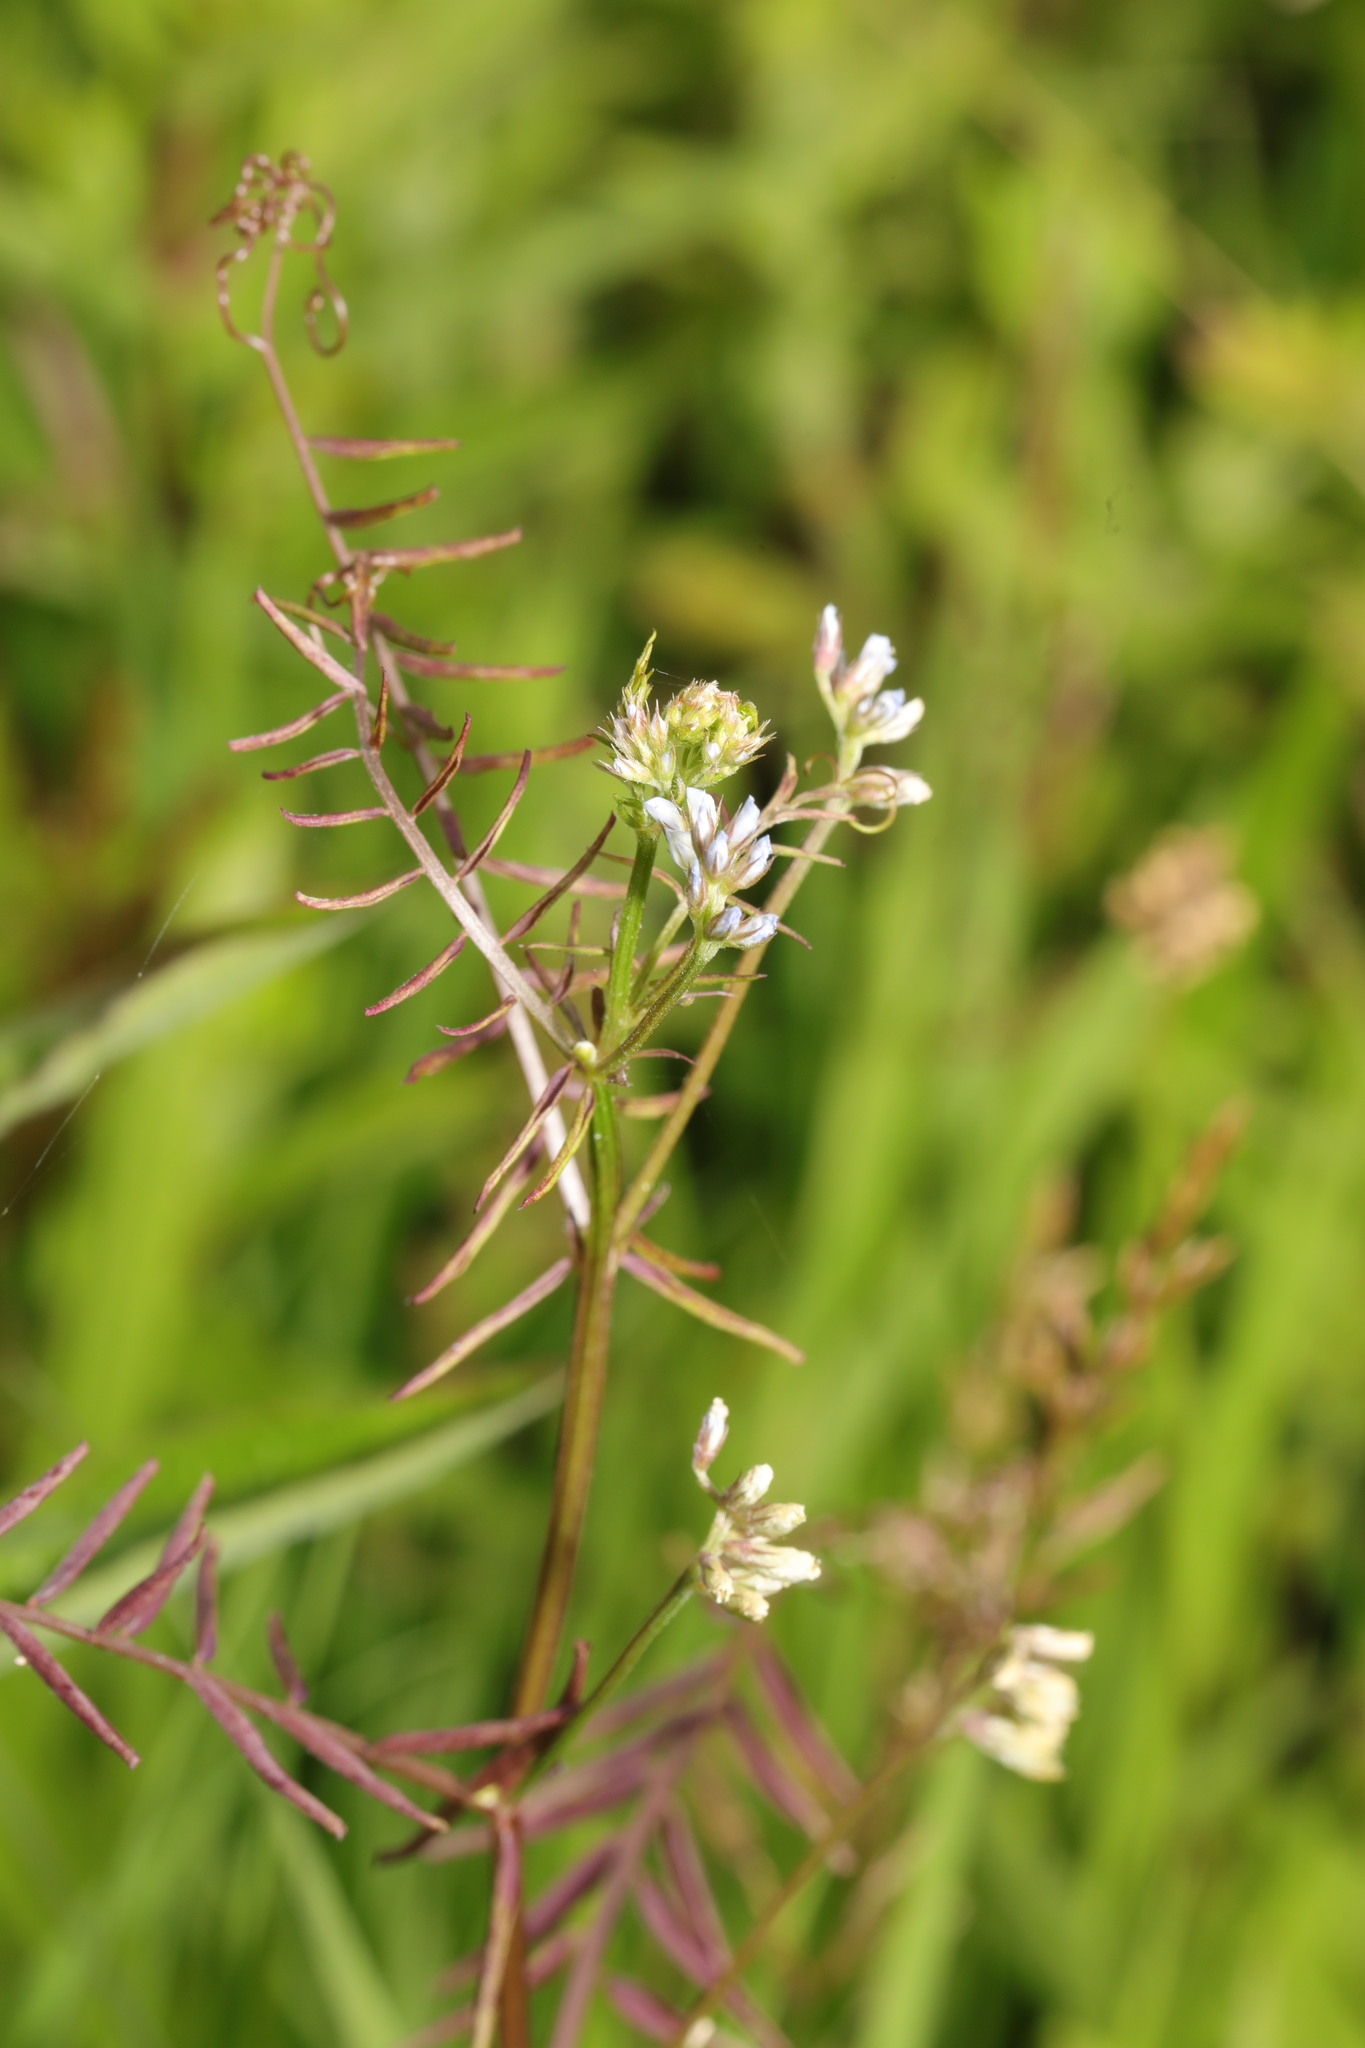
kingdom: Plantae
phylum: Tracheophyta
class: Magnoliopsida
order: Fabales
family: Fabaceae
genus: Vicia
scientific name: Vicia hirsuta
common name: Tiny vetch
